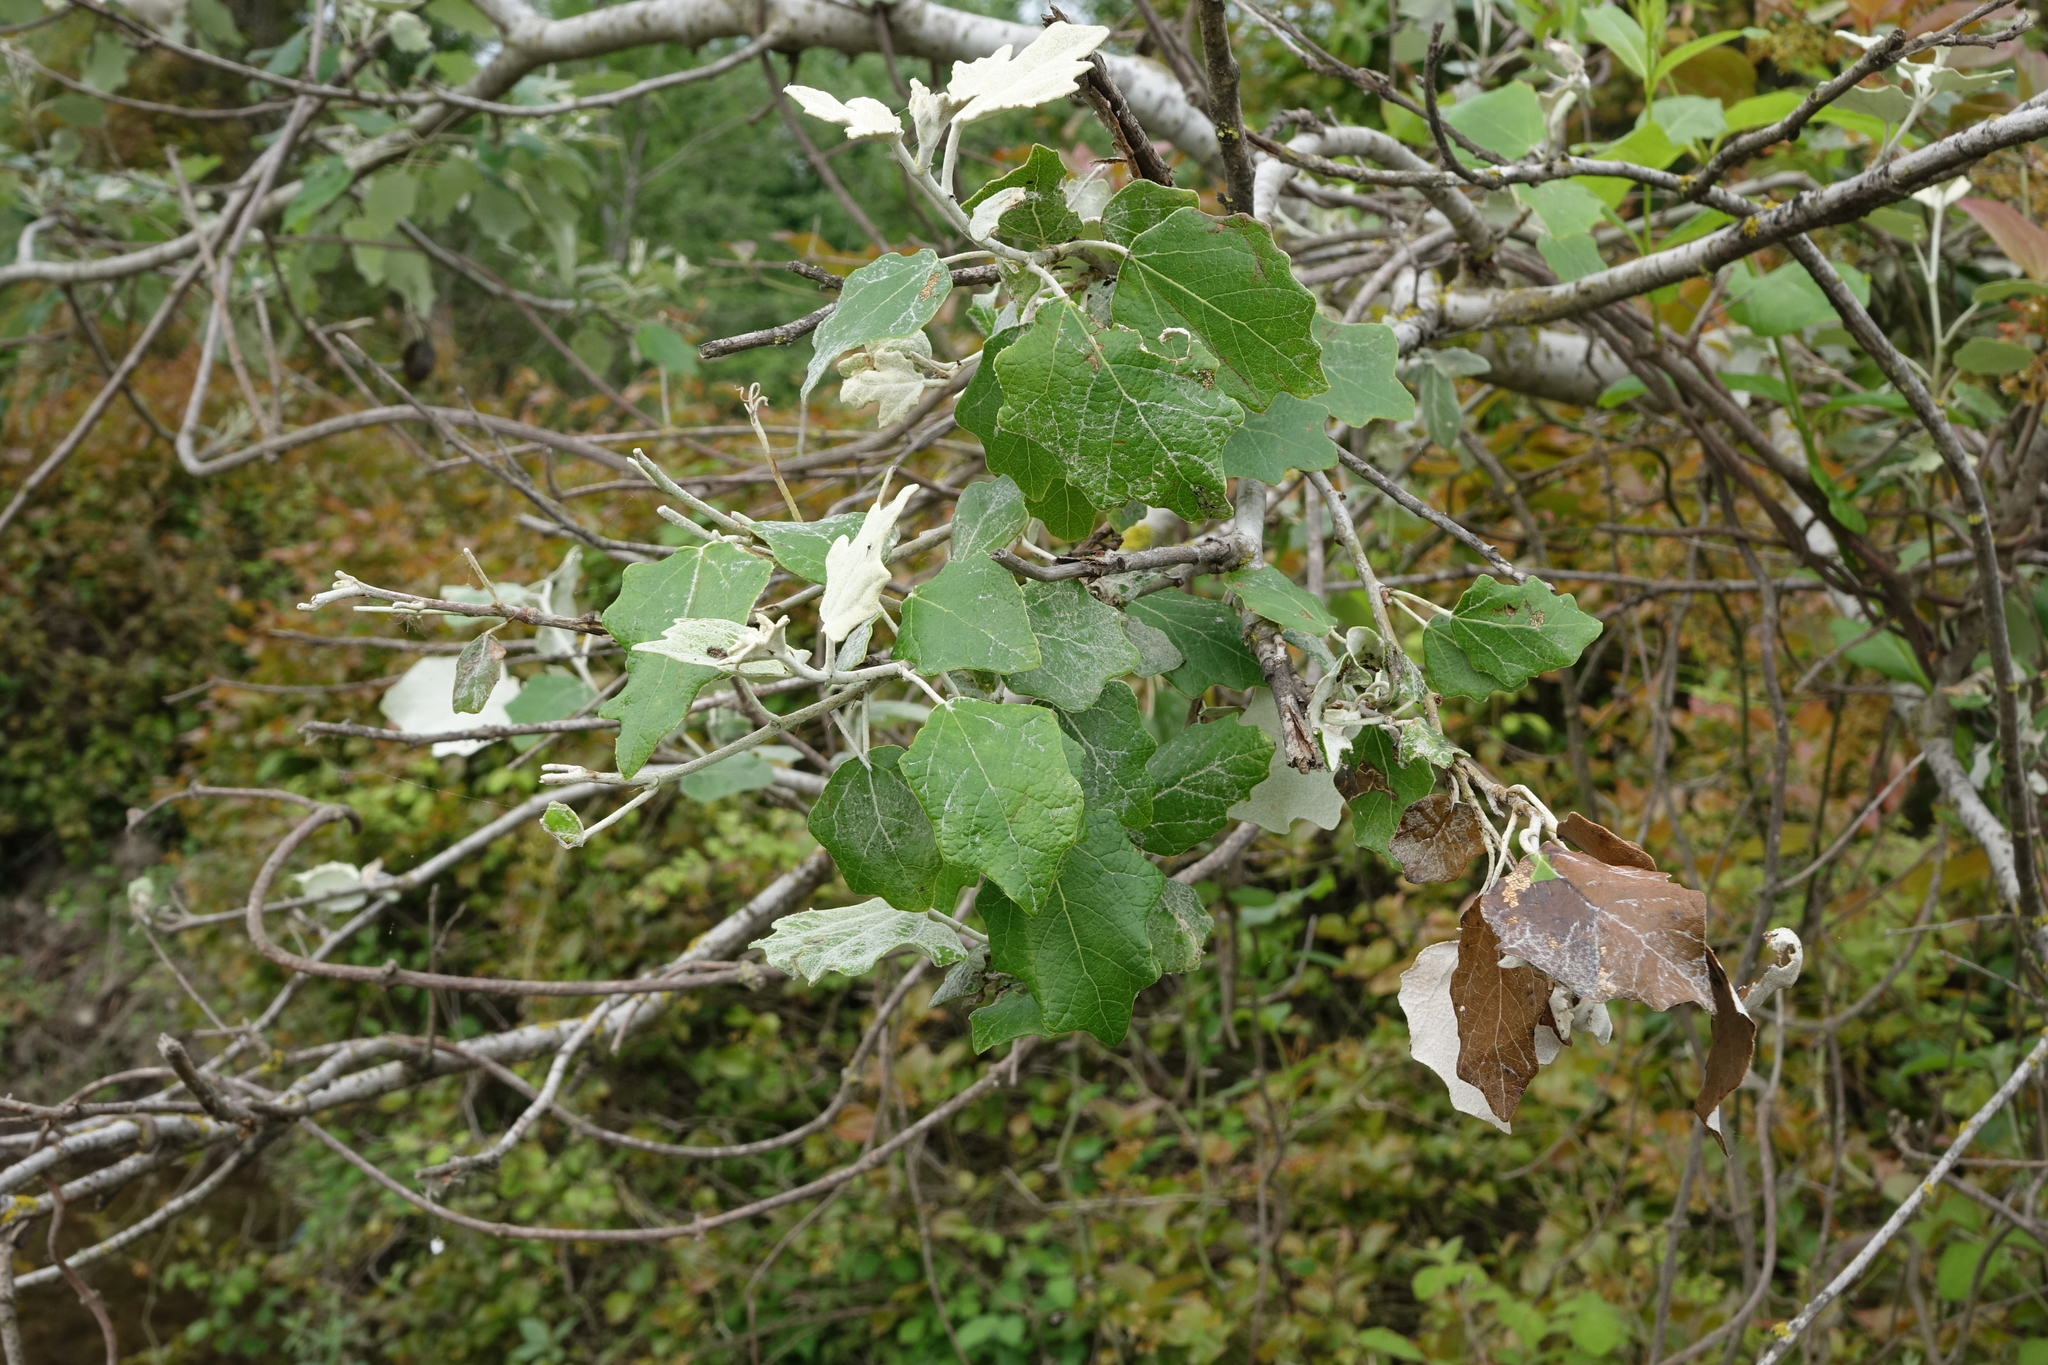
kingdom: Plantae
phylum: Tracheophyta
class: Magnoliopsida
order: Malpighiales
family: Salicaceae
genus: Populus
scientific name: Populus alba
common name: White poplar
